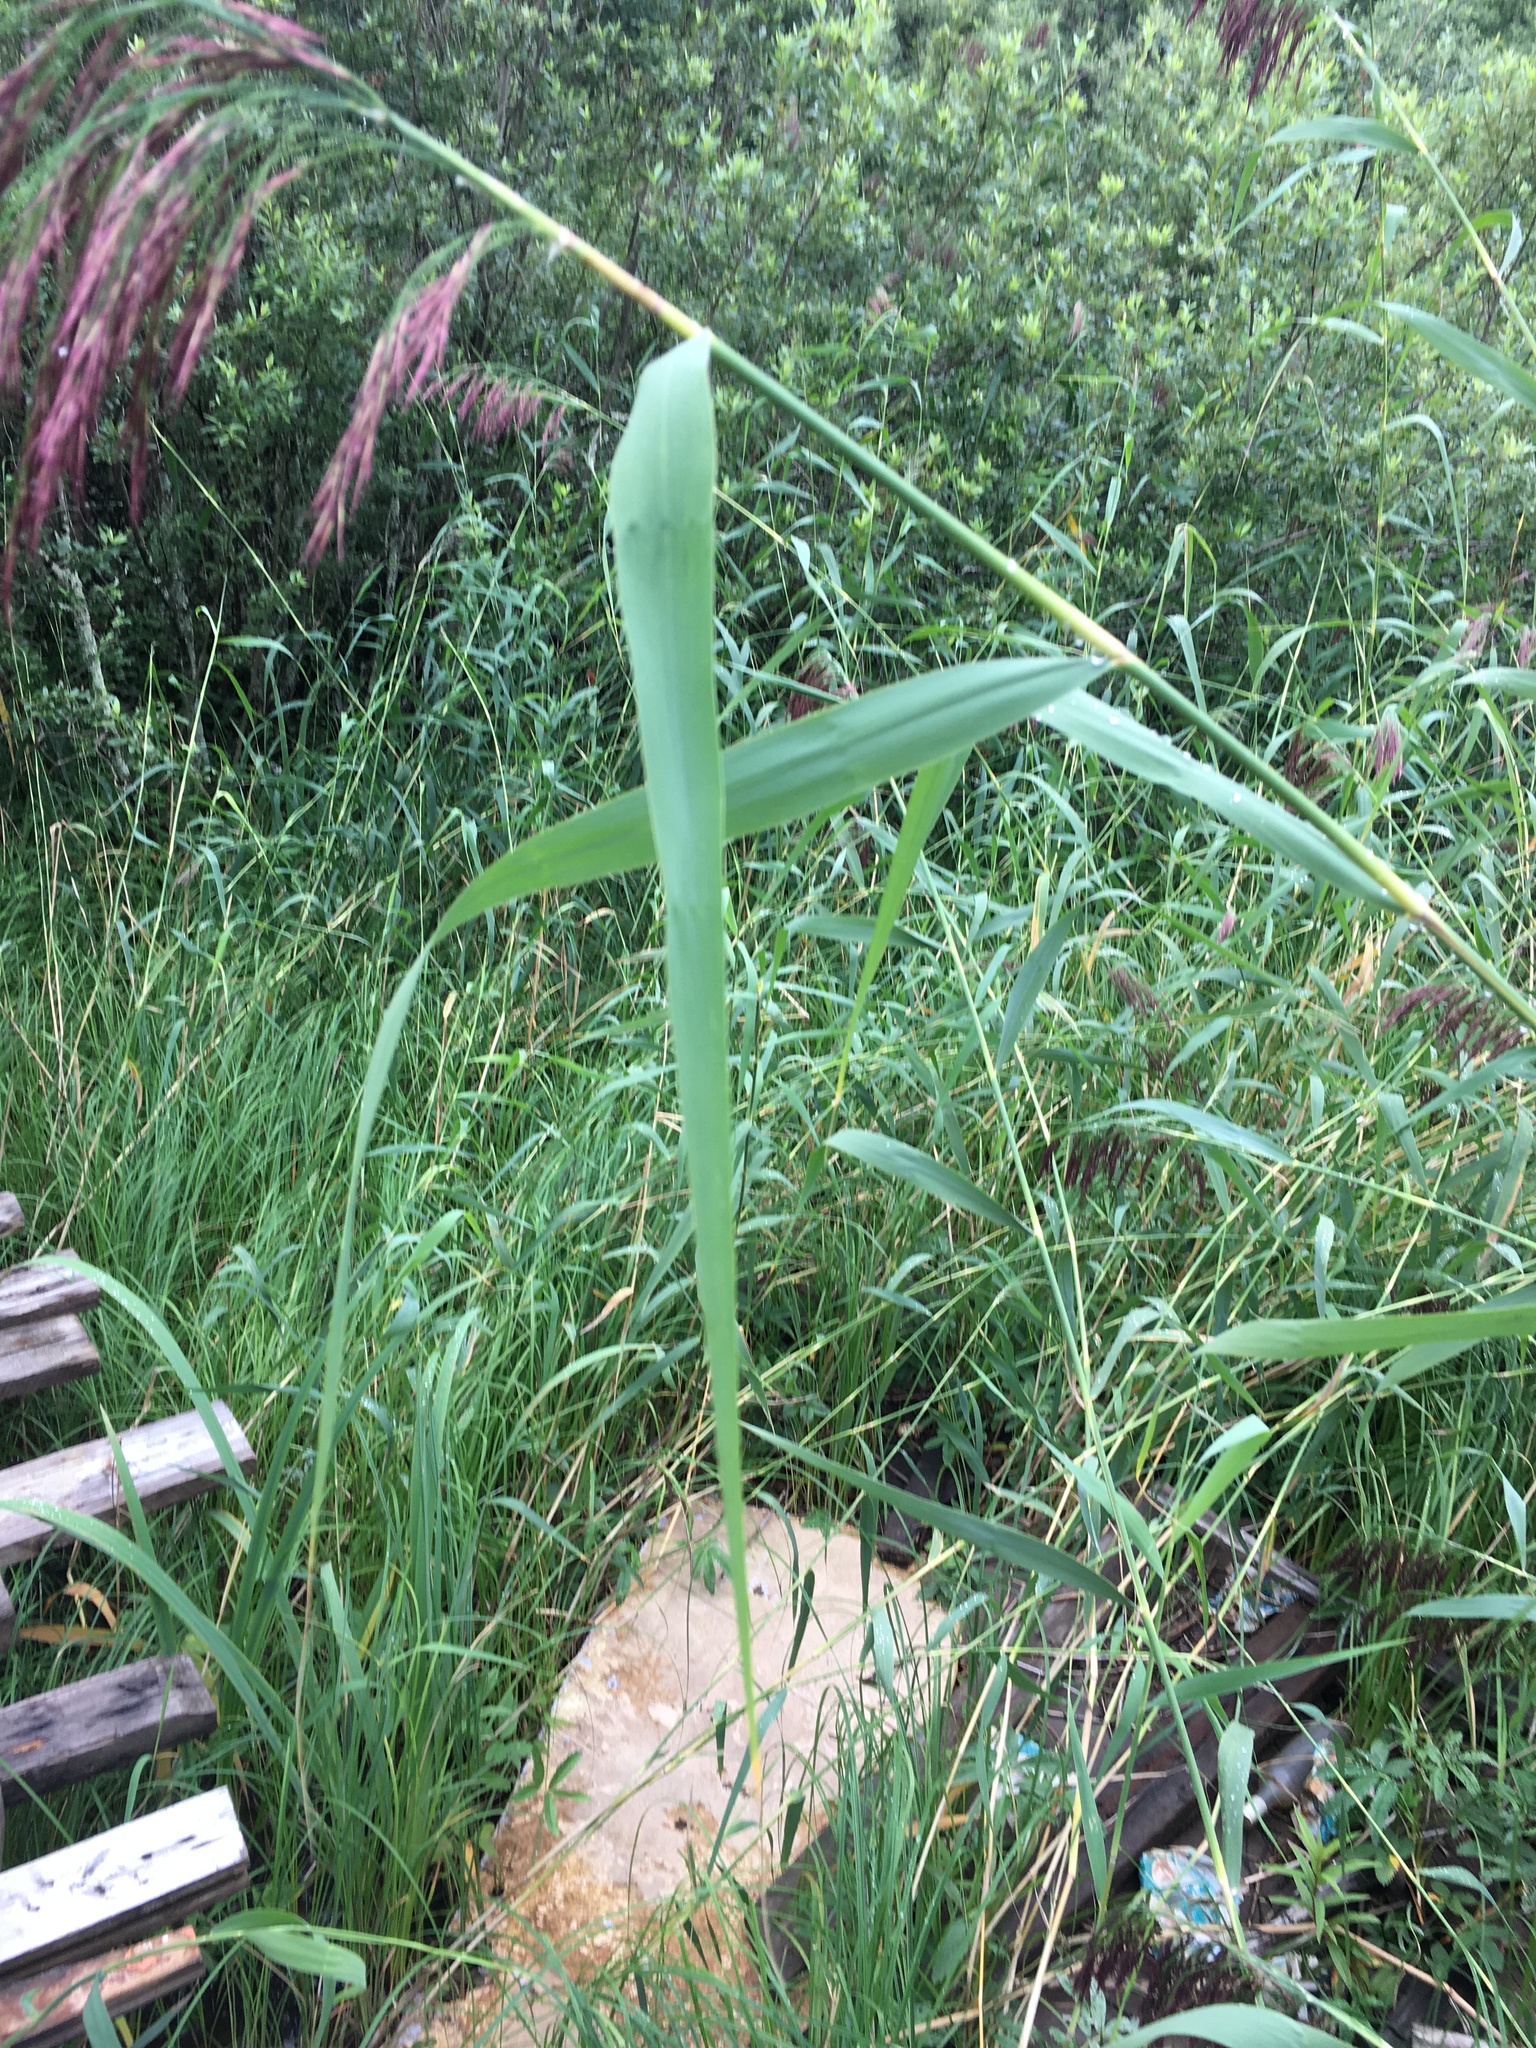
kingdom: Plantae
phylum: Tracheophyta
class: Liliopsida
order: Poales
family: Poaceae
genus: Phragmites
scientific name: Phragmites australis
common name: Common reed
